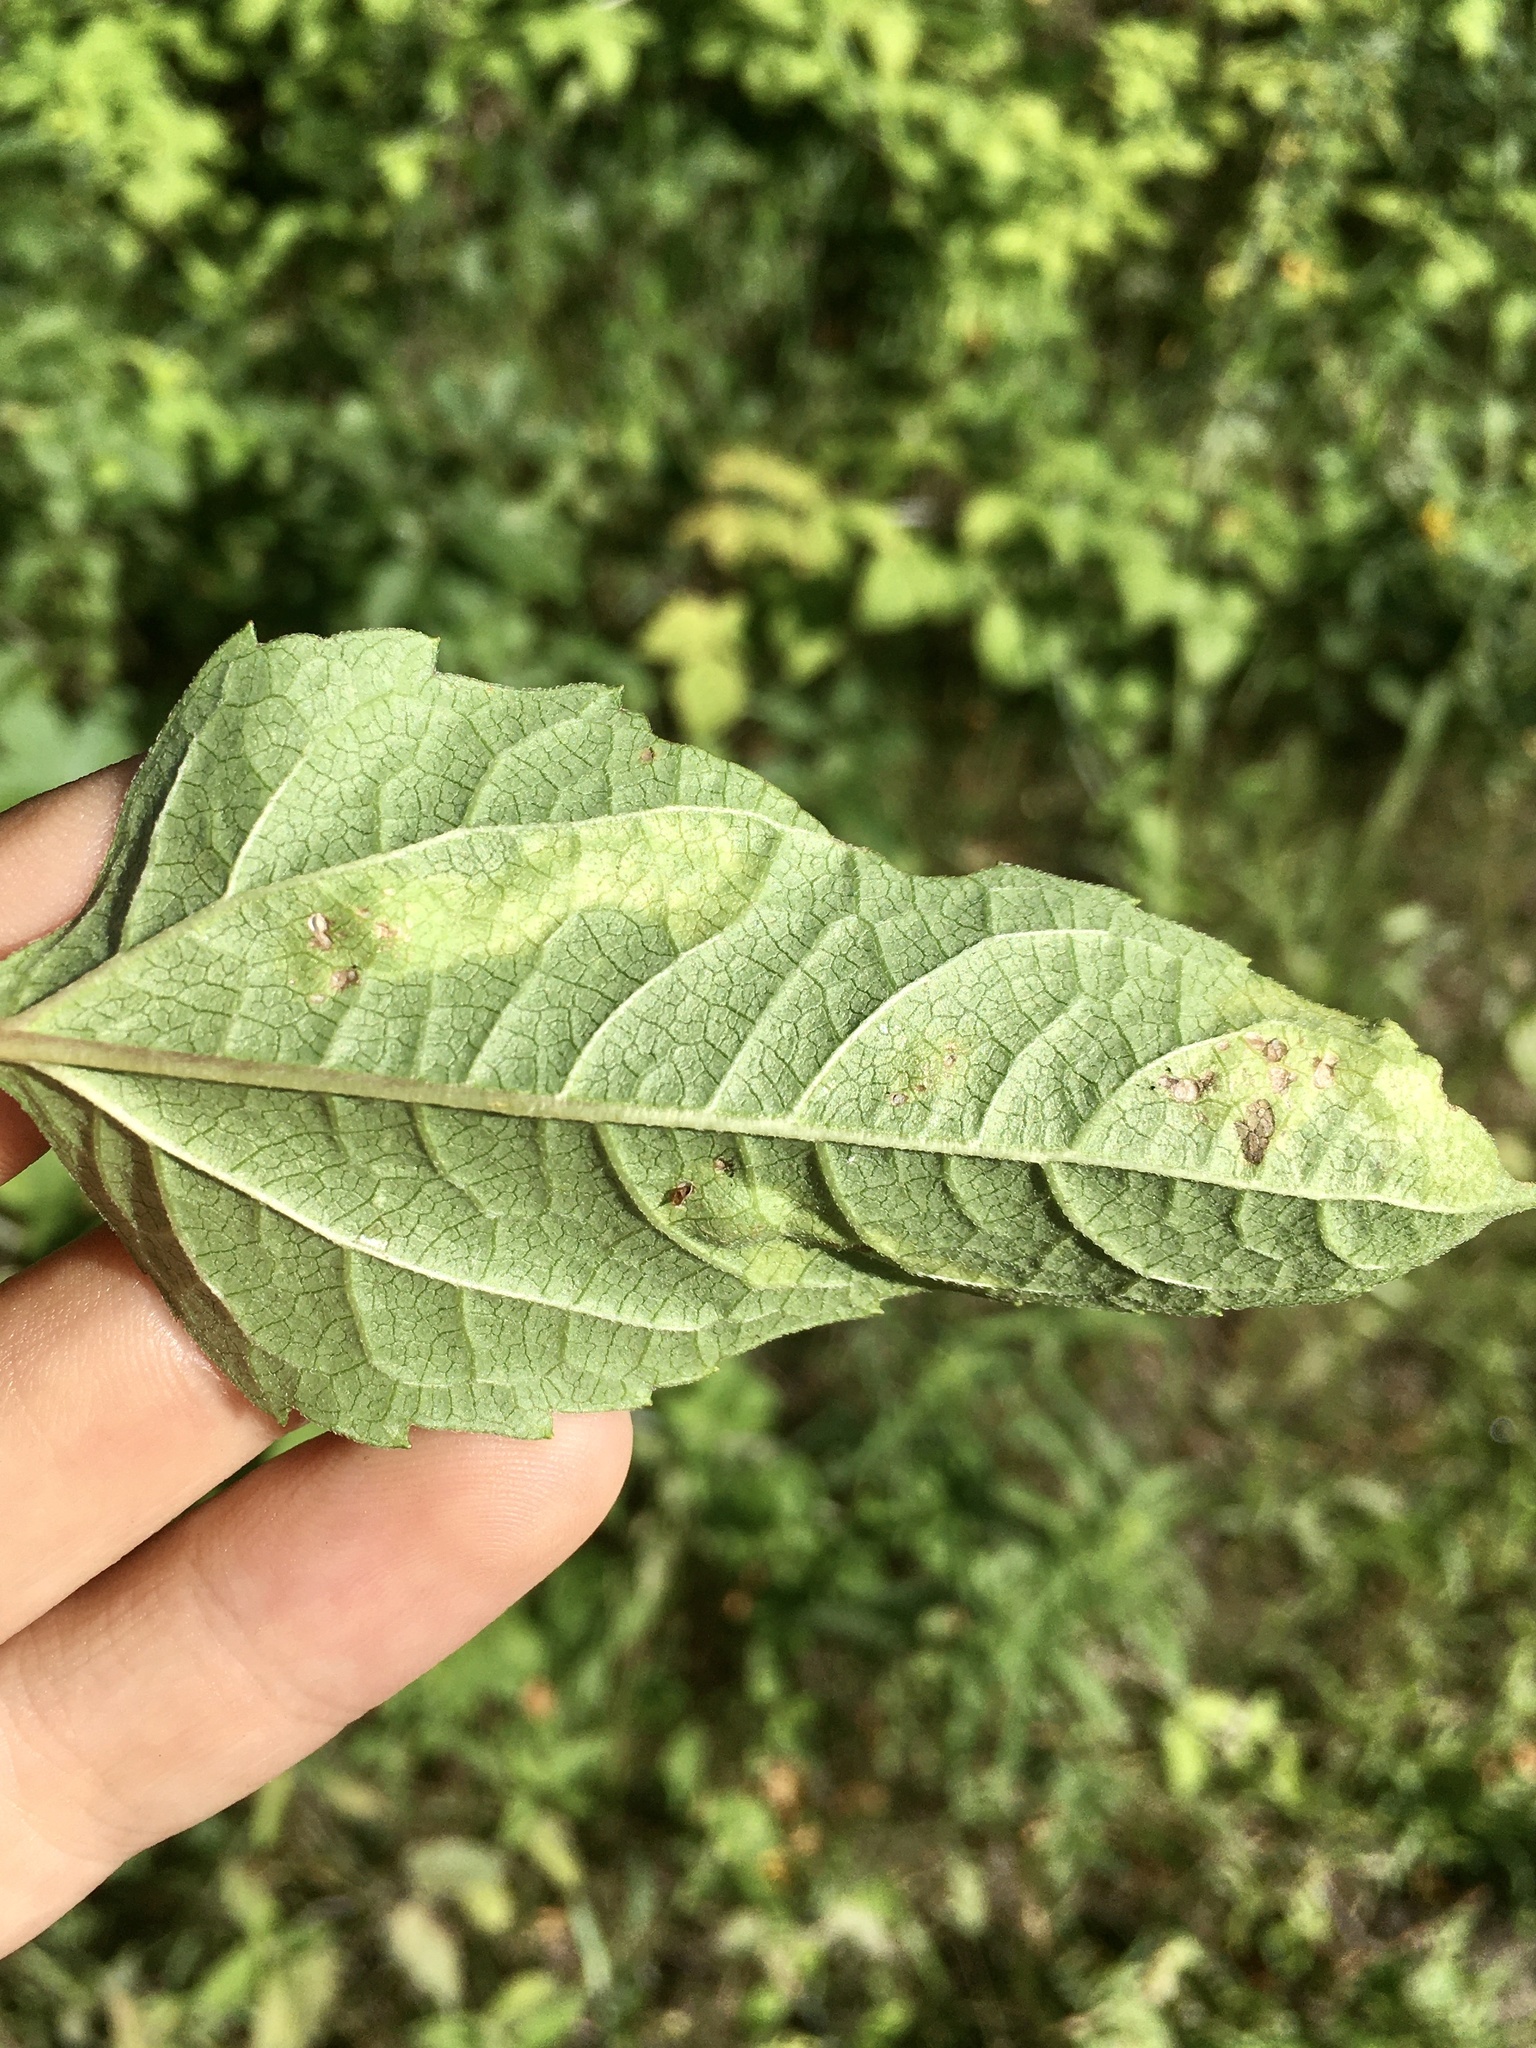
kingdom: Animalia
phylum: Arthropoda
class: Insecta
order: Lepidoptera
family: Tischeriidae
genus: Astrotischeria
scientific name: Astrotischeria heliopsisella
